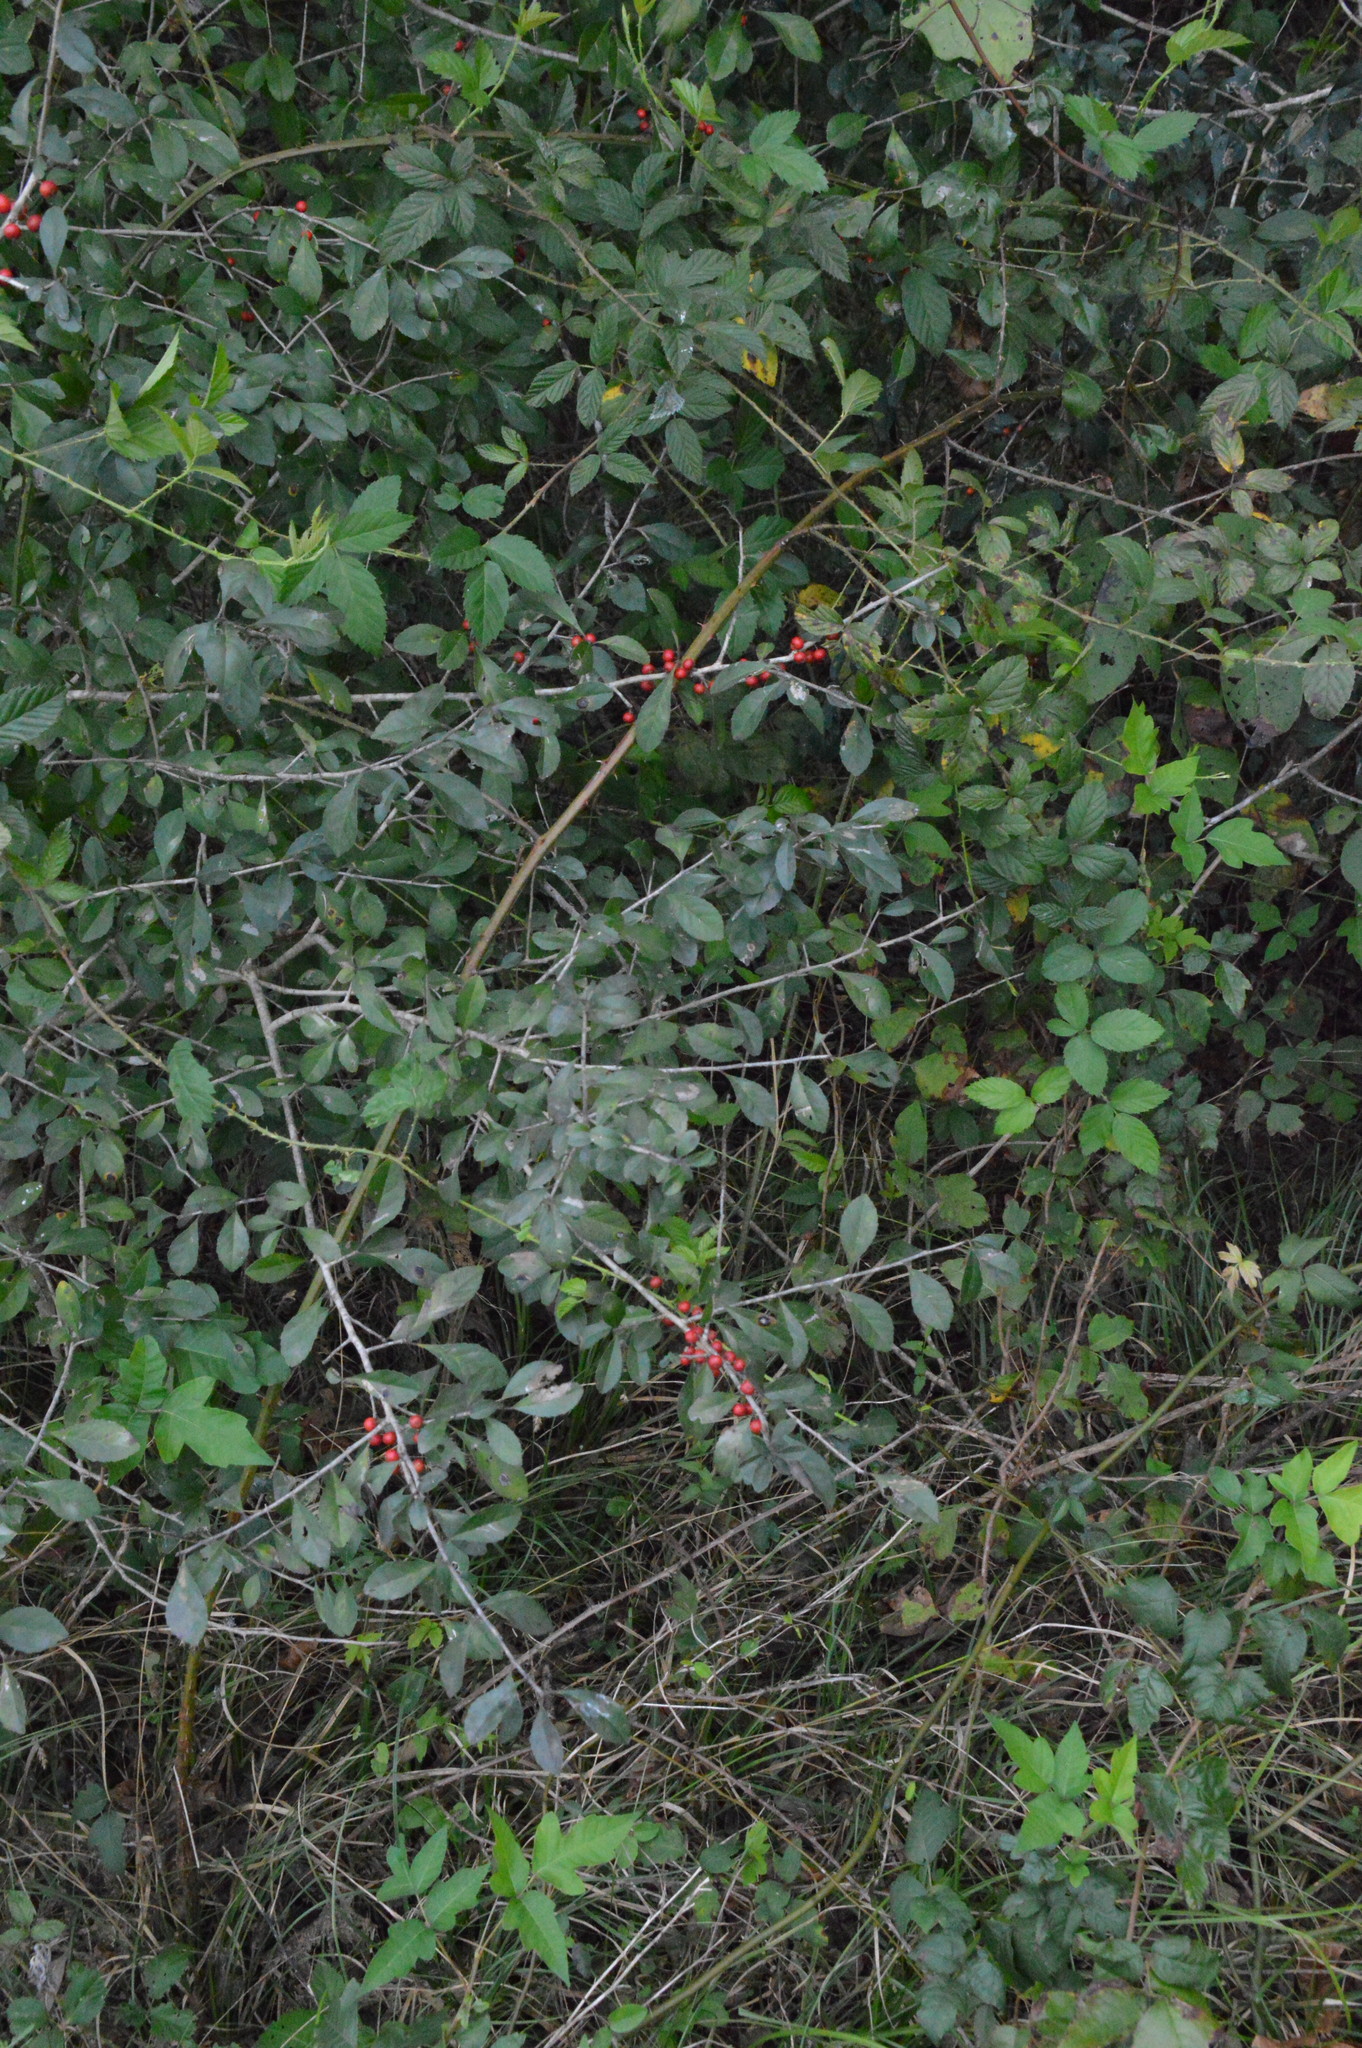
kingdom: Plantae
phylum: Tracheophyta
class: Magnoliopsida
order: Aquifoliales
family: Aquifoliaceae
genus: Ilex
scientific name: Ilex decidua
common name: Possum-haw
